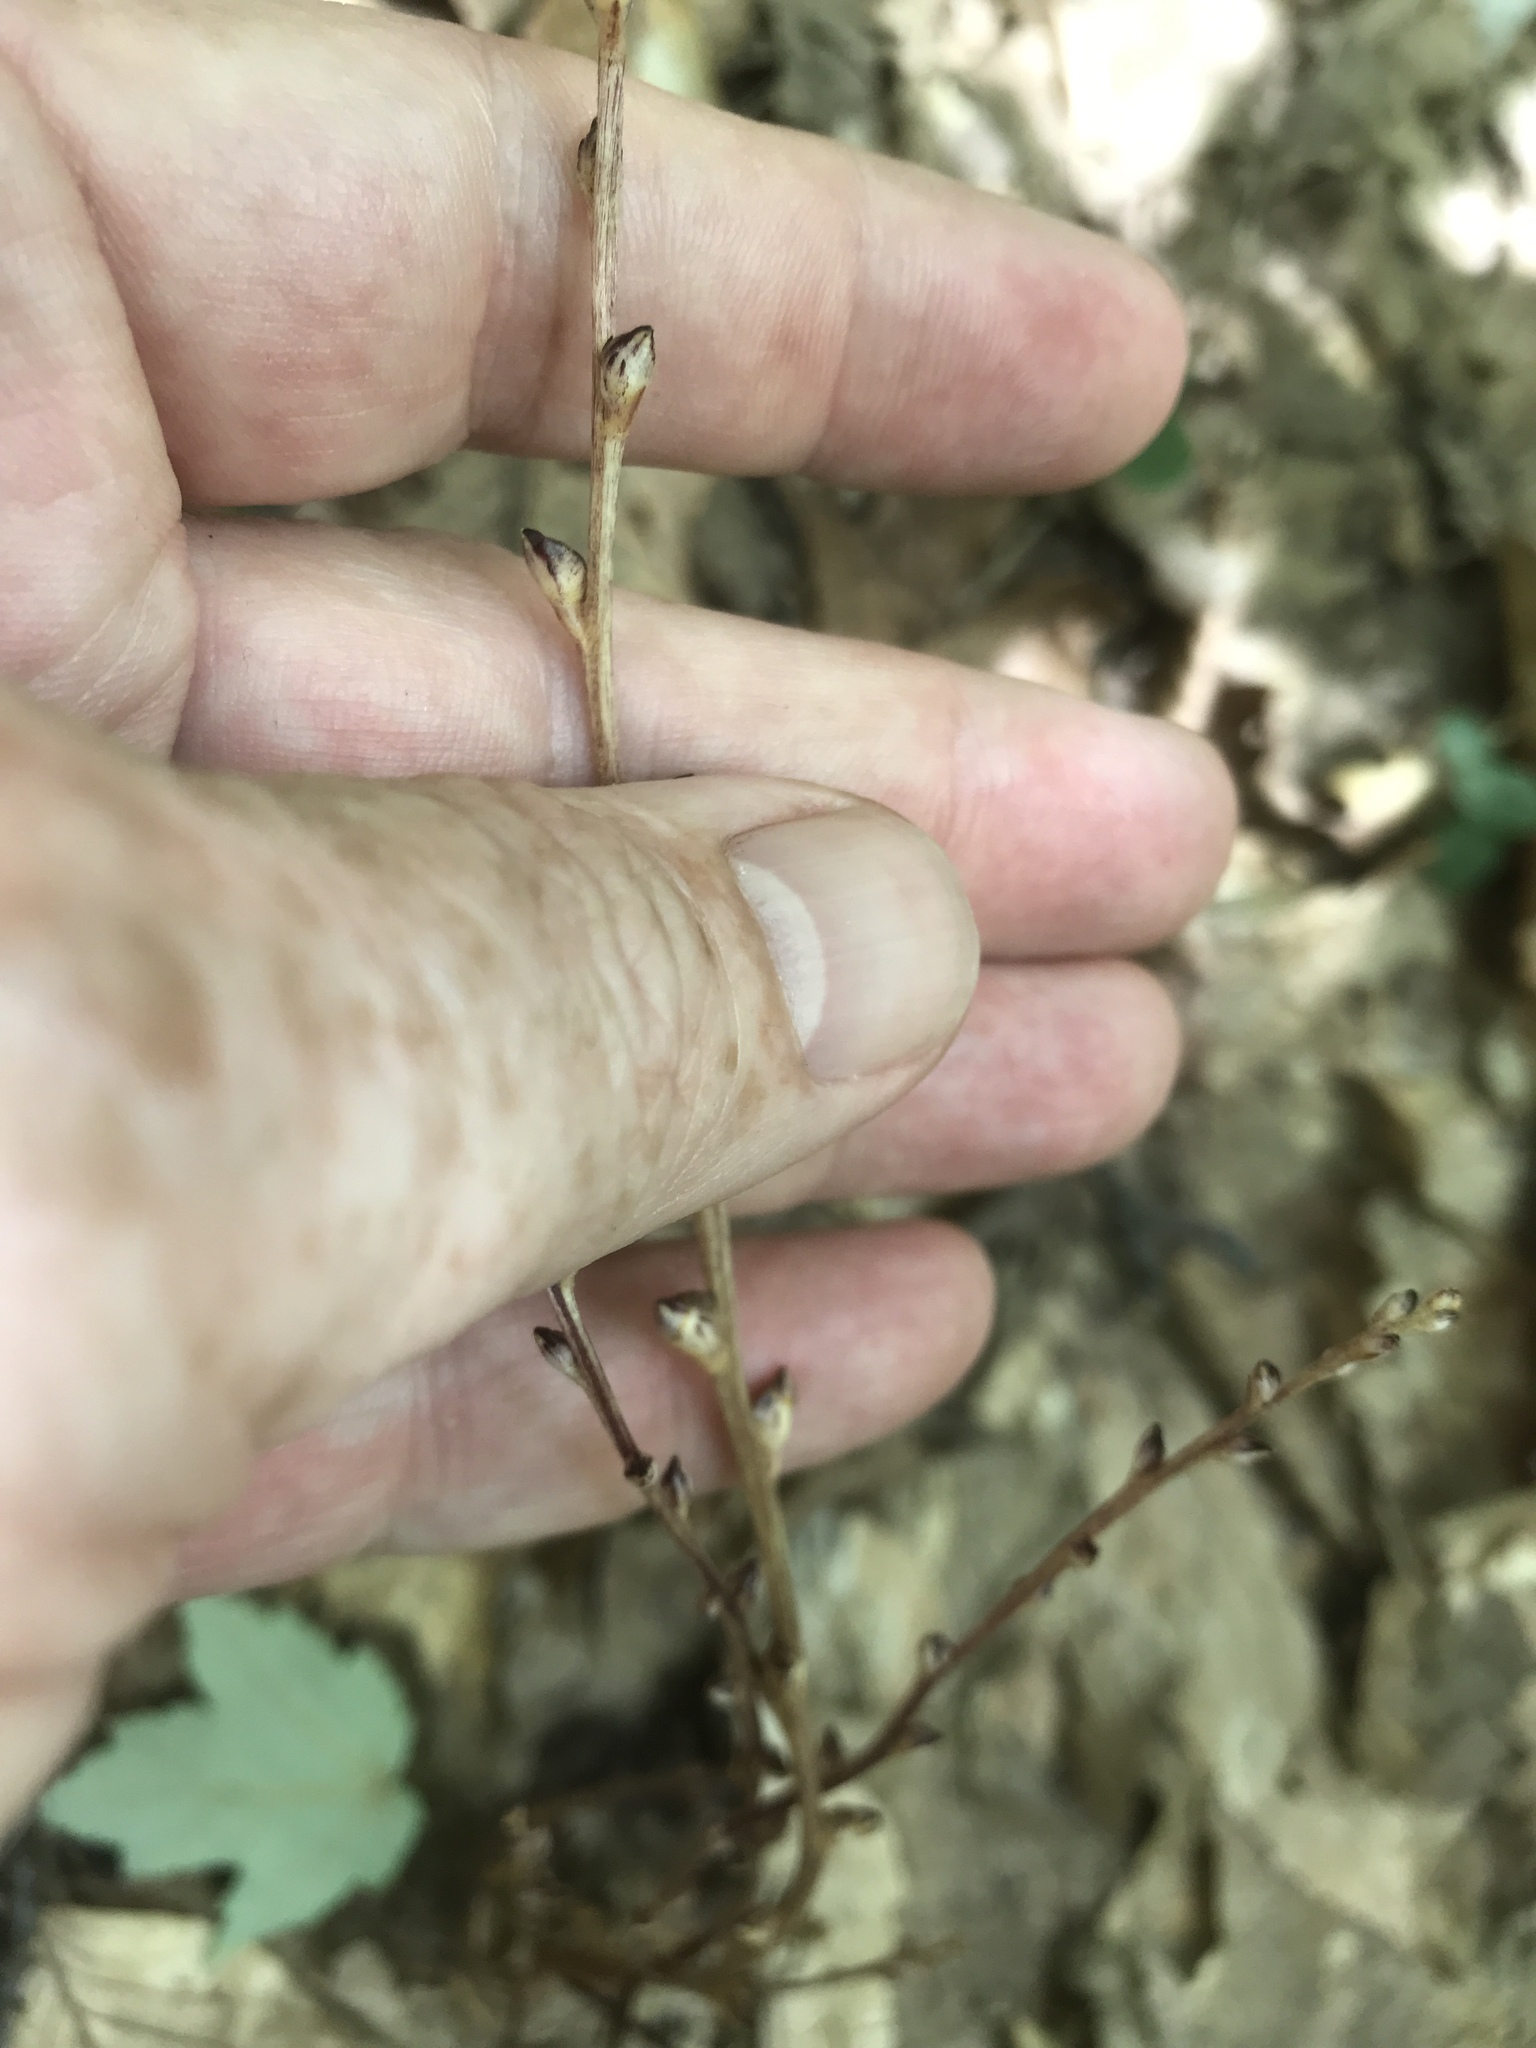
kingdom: Plantae
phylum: Tracheophyta
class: Magnoliopsida
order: Lamiales
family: Orobanchaceae
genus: Epifagus
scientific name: Epifagus virginiana
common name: Beechdrops
